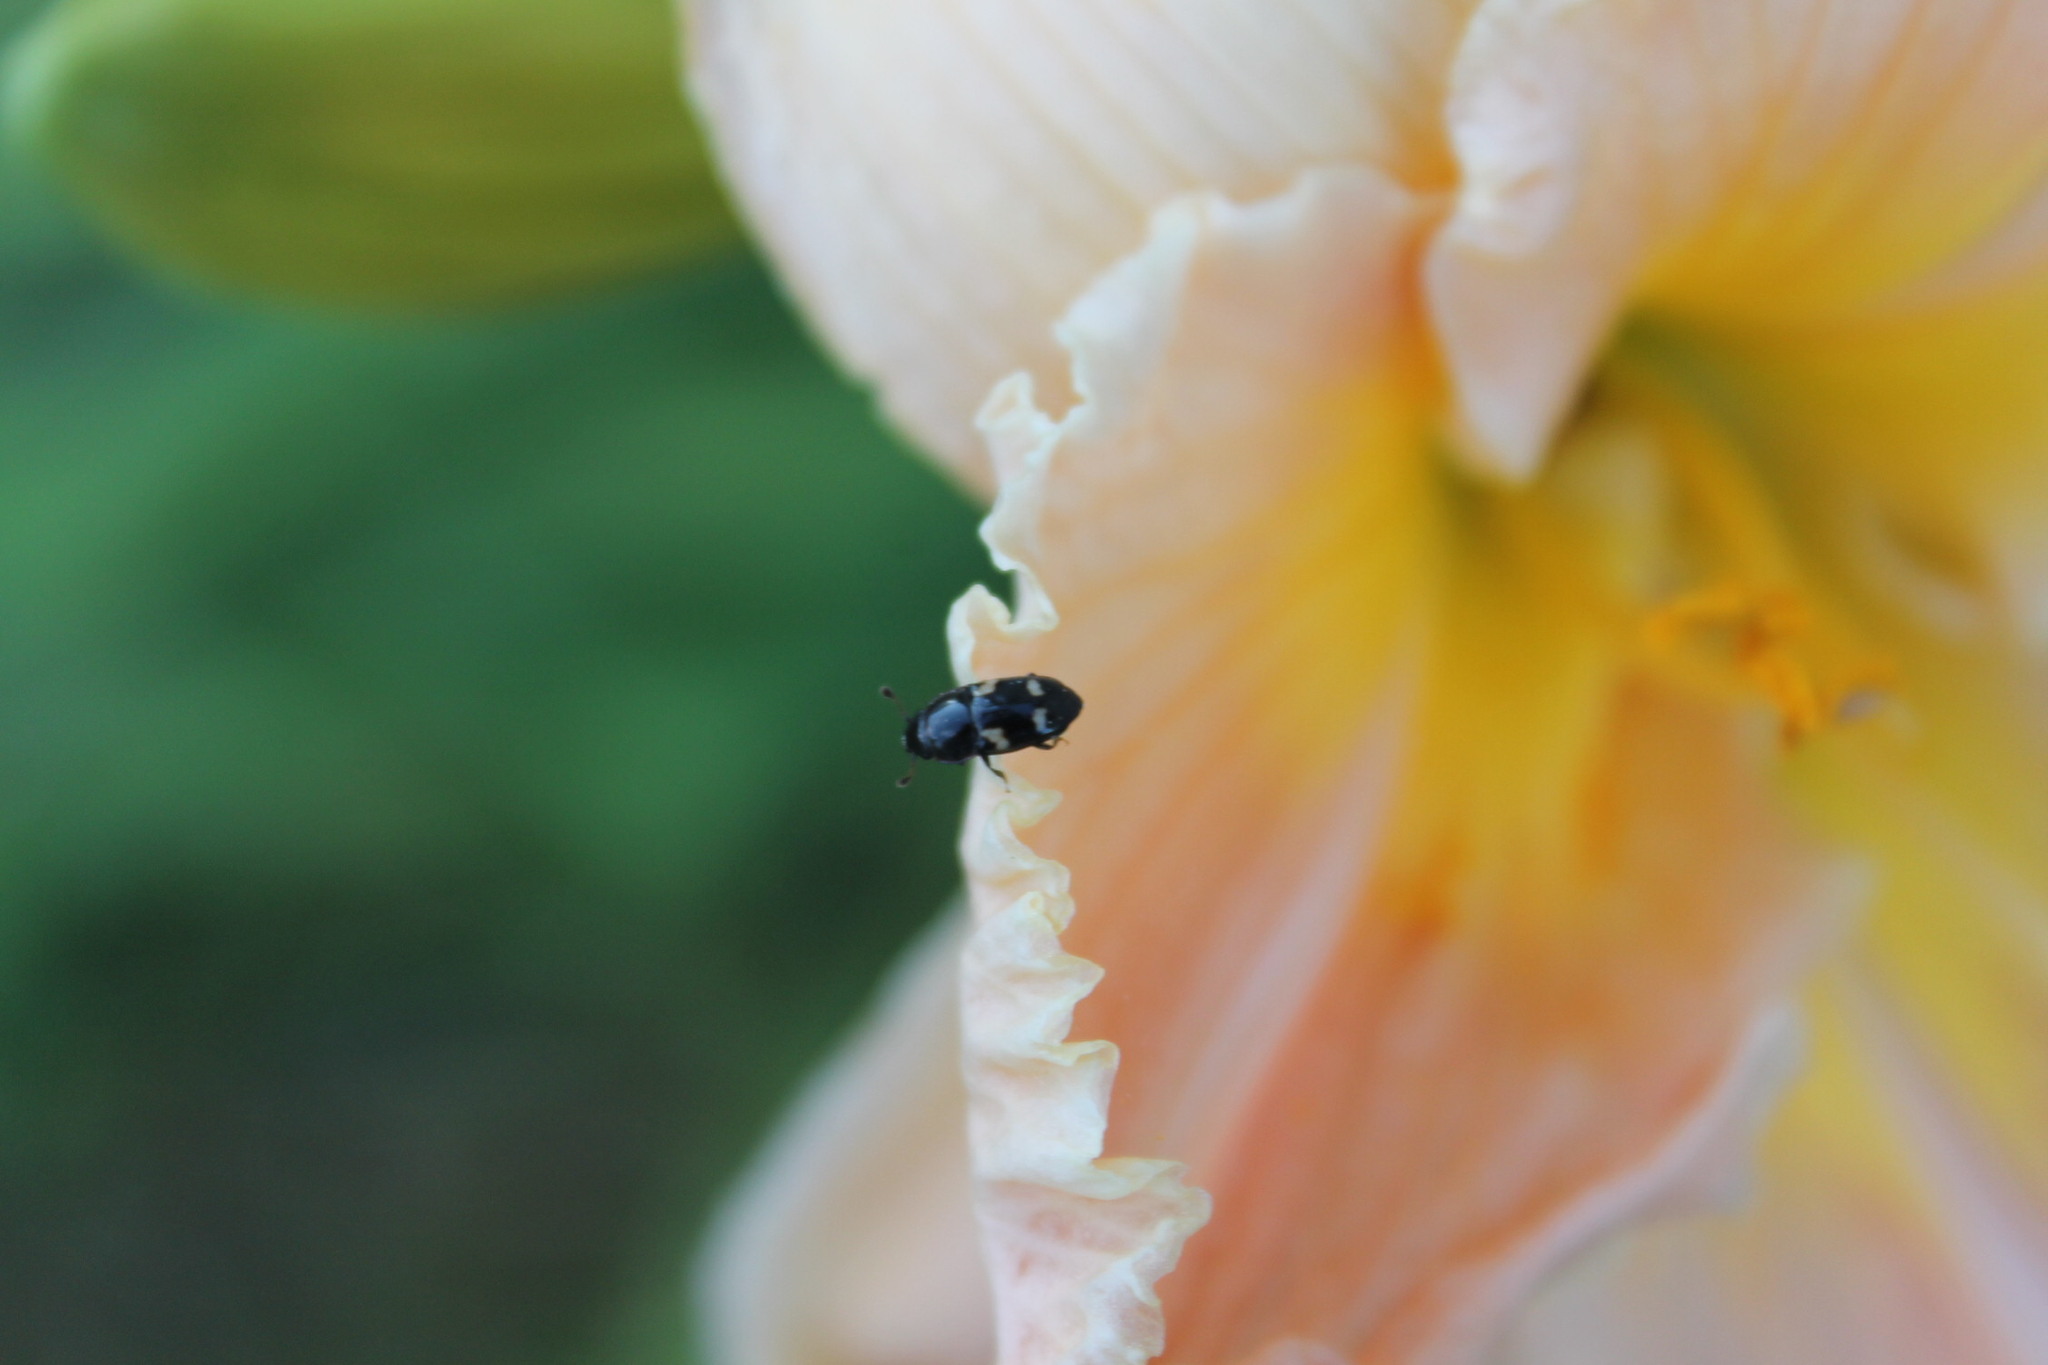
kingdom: Animalia
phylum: Arthropoda
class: Insecta
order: Coleoptera
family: Nitidulidae
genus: Glischrochilus
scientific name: Glischrochilus quadrisignatus
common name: Picnic beetle
